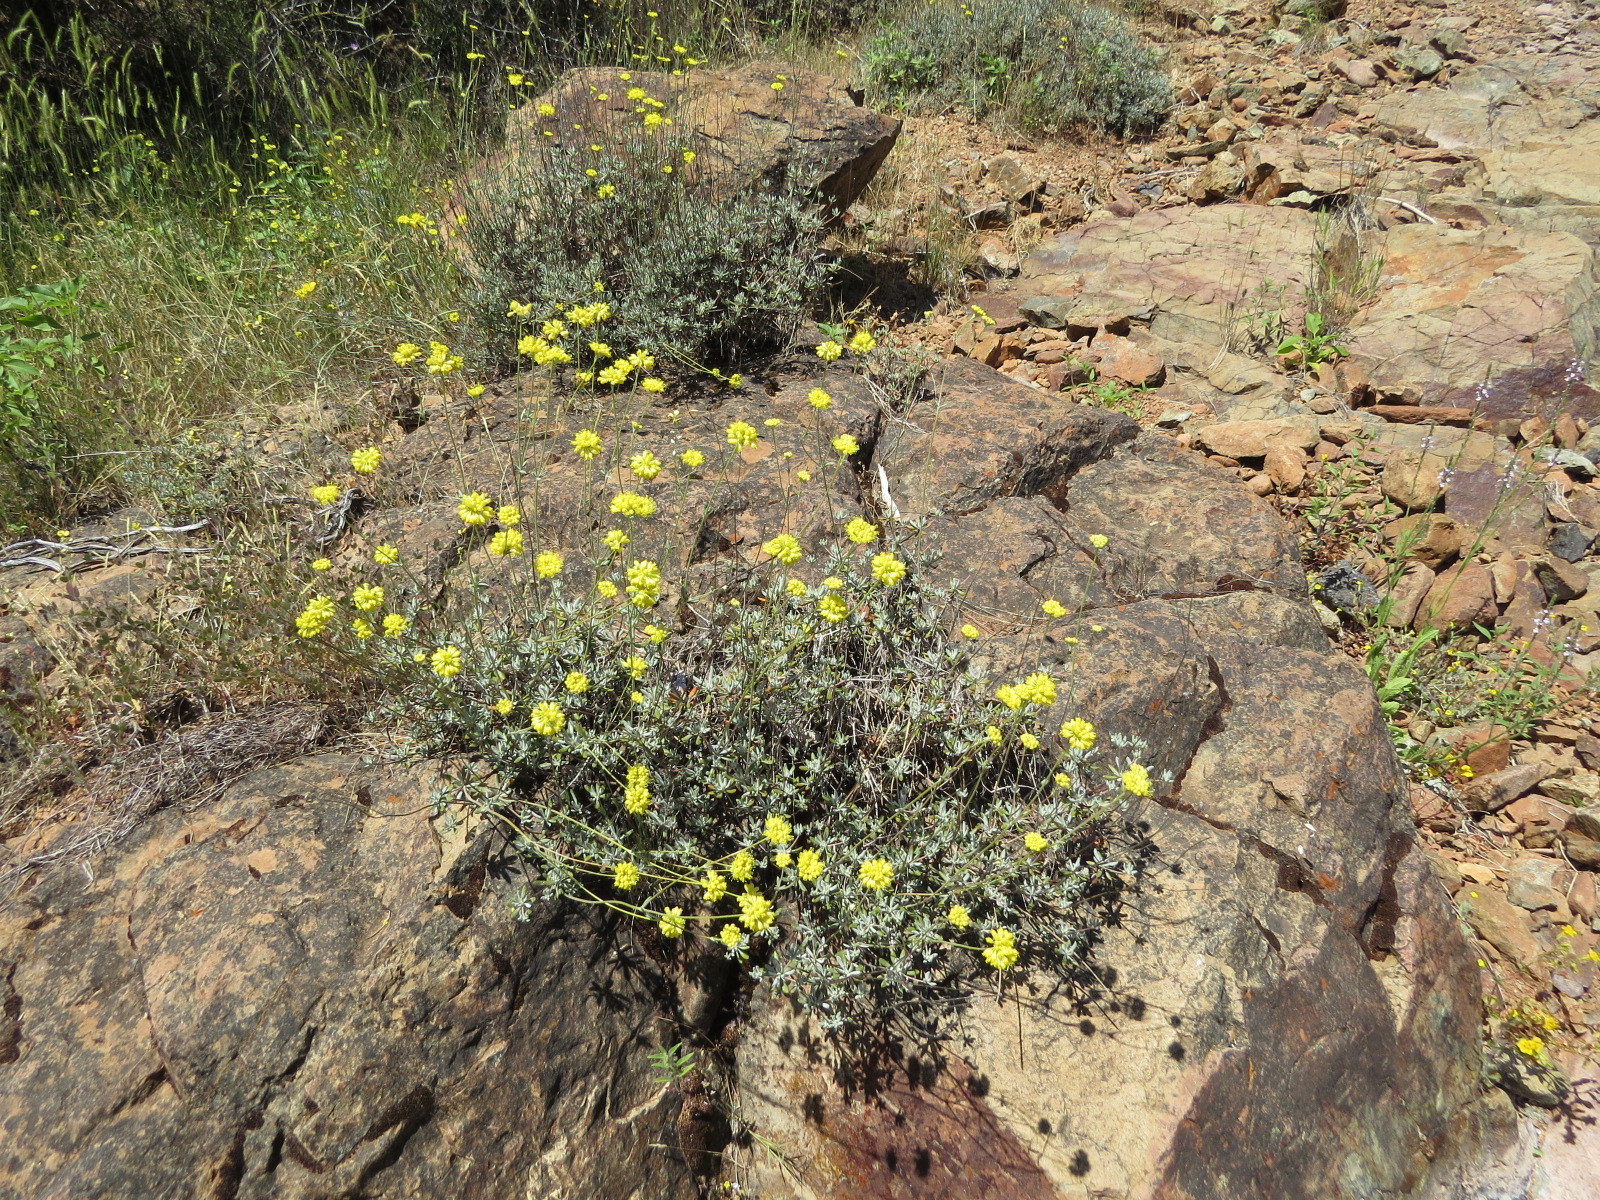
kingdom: Plantae
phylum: Tracheophyta
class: Magnoliopsida
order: Caryophyllales
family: Polygonaceae
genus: Eriogonum
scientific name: Eriogonum tripodum
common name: Tripod buckwheat
